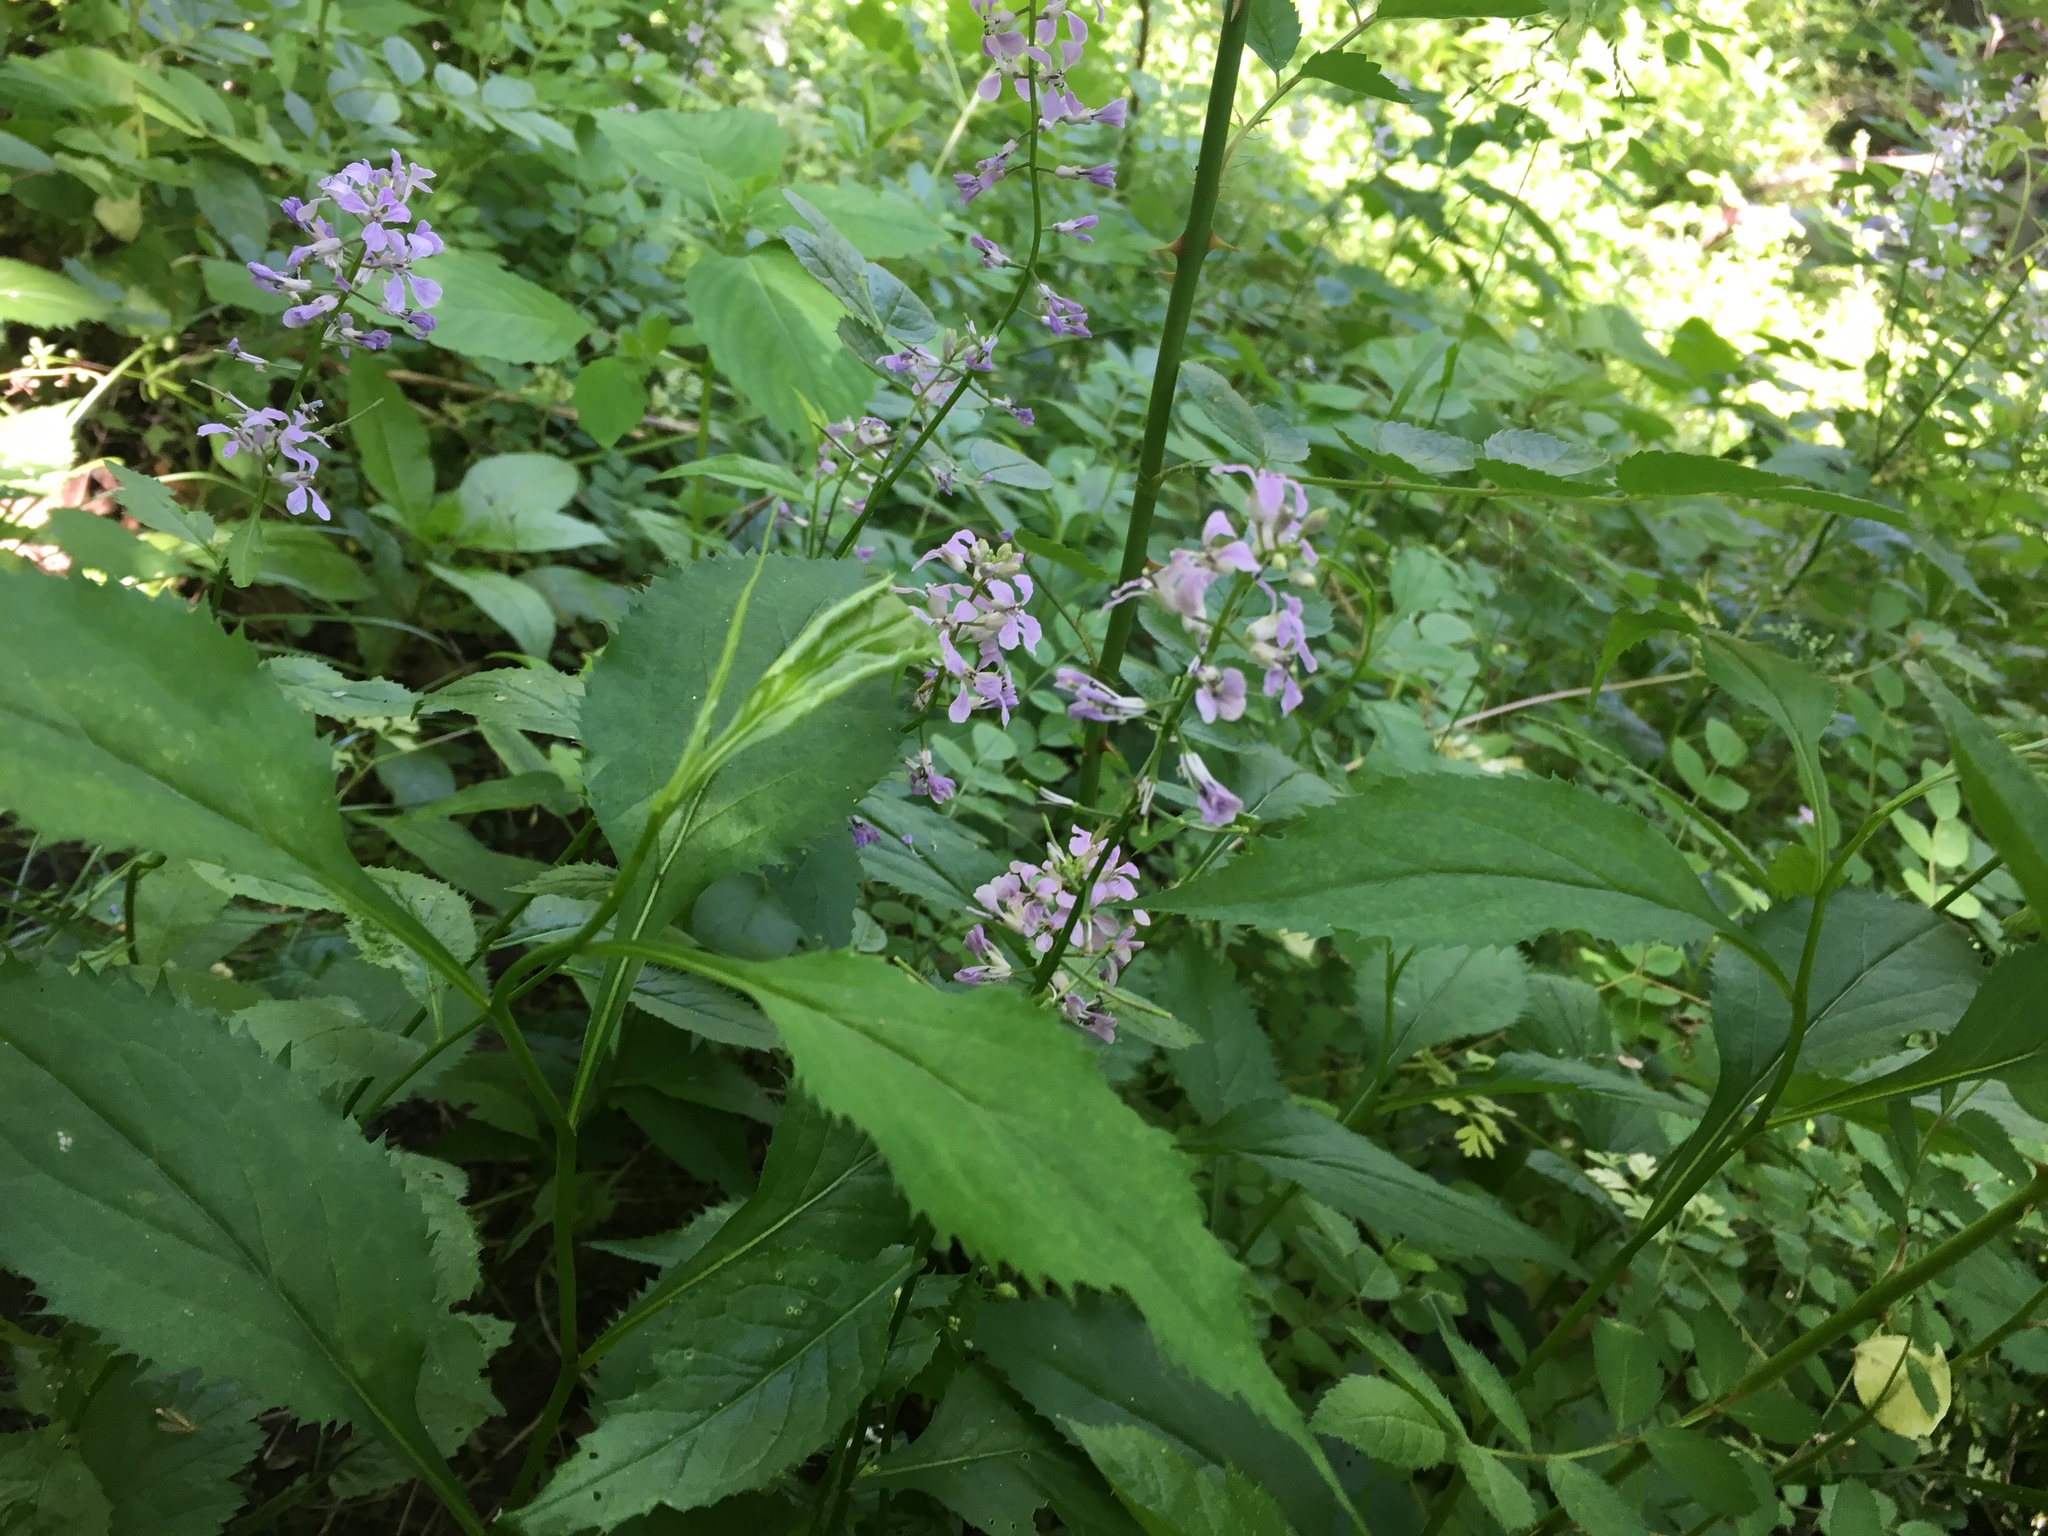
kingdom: Plantae
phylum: Tracheophyta
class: Magnoliopsida
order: Brassicales
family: Brassicaceae
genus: Iodanthus
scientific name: Iodanthus pinnatifidus
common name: Violet rocket
